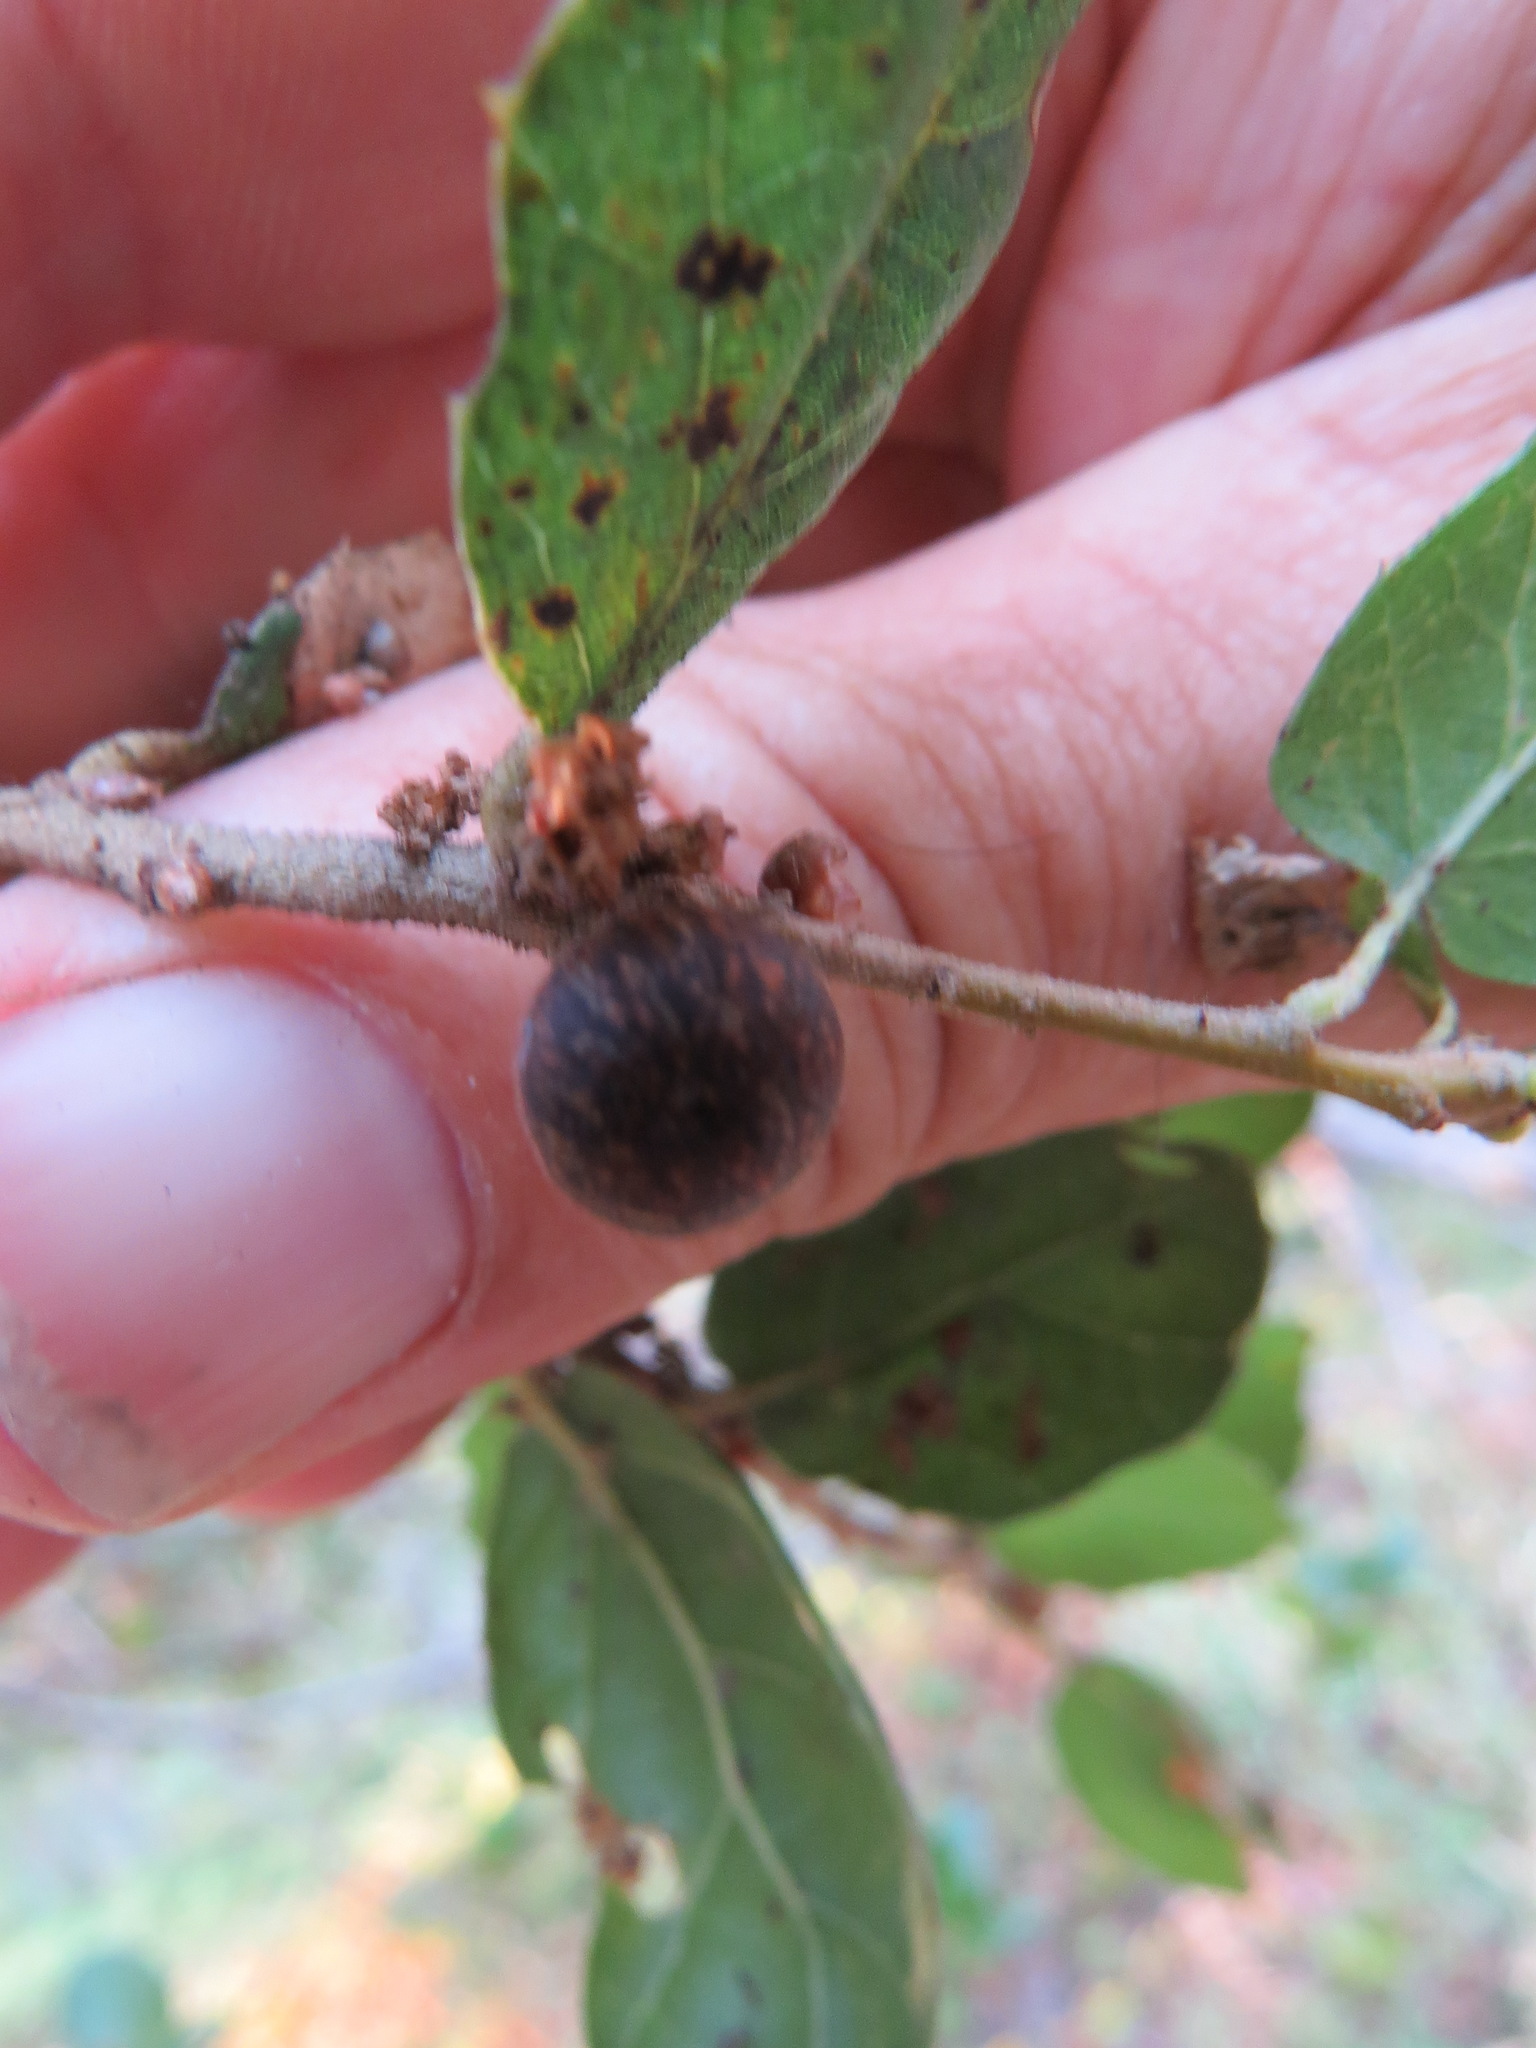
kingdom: Animalia
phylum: Arthropoda
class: Insecta
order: Hymenoptera
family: Cynipidae
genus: Callirhytis
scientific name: Callirhytis
